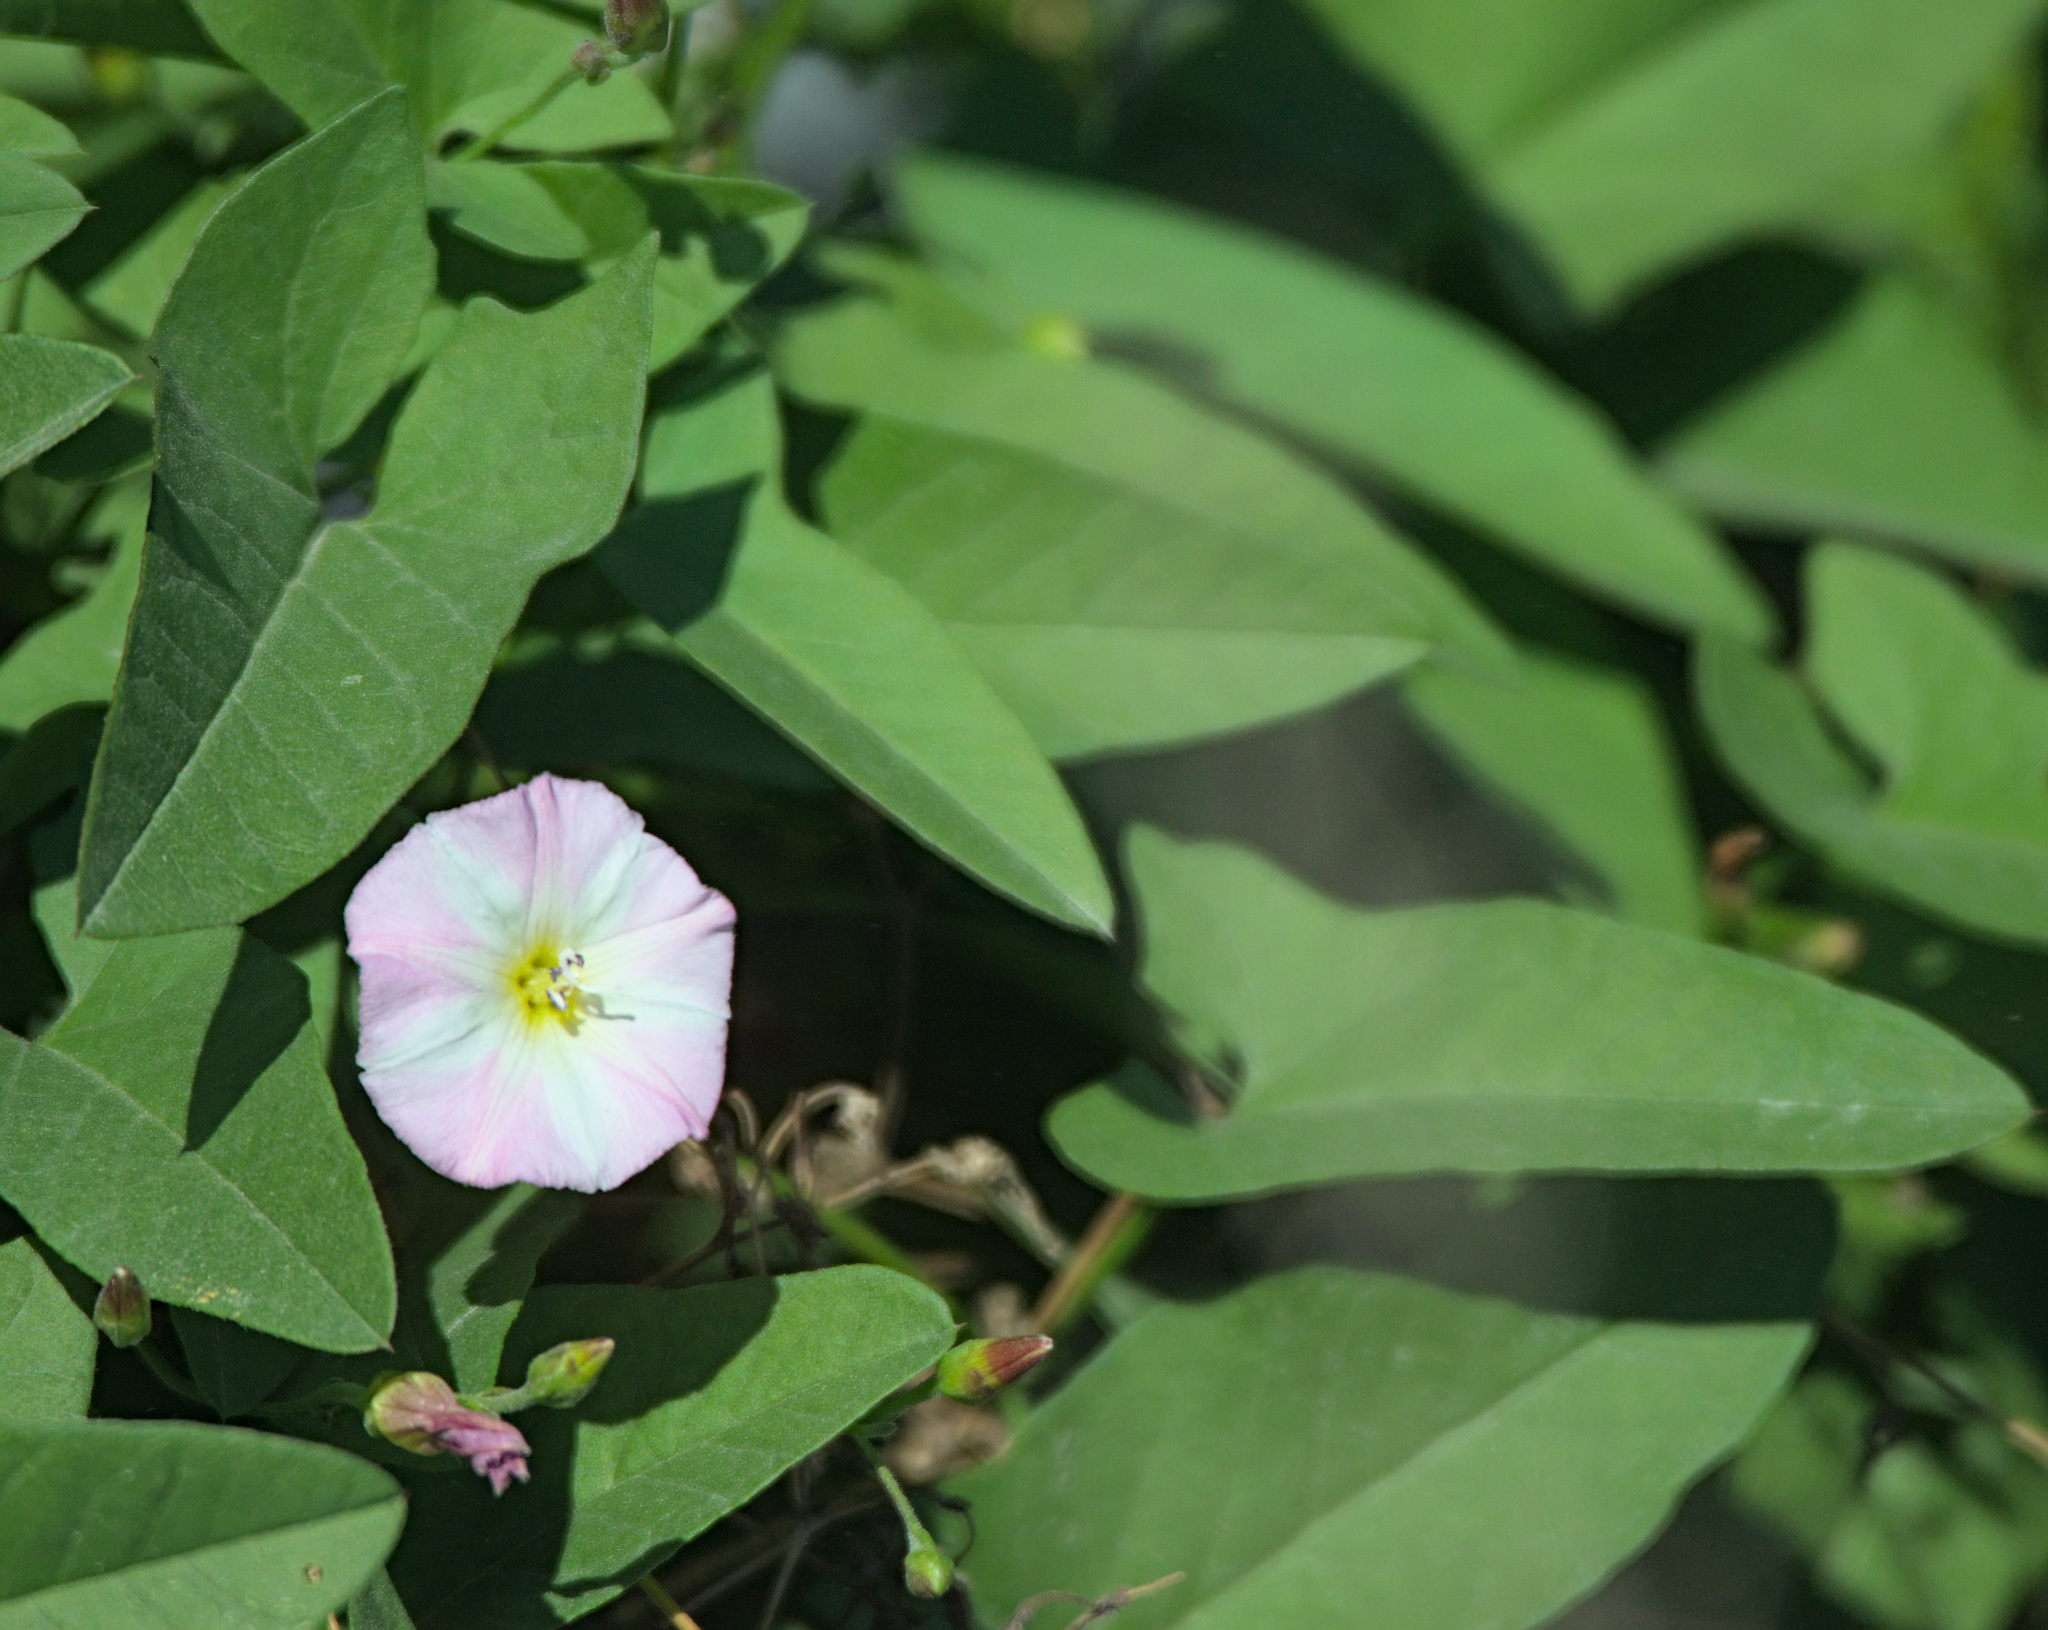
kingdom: Plantae
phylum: Tracheophyta
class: Magnoliopsida
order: Solanales
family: Convolvulaceae
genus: Convolvulus
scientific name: Convolvulus arvensis
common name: Field bindweed
